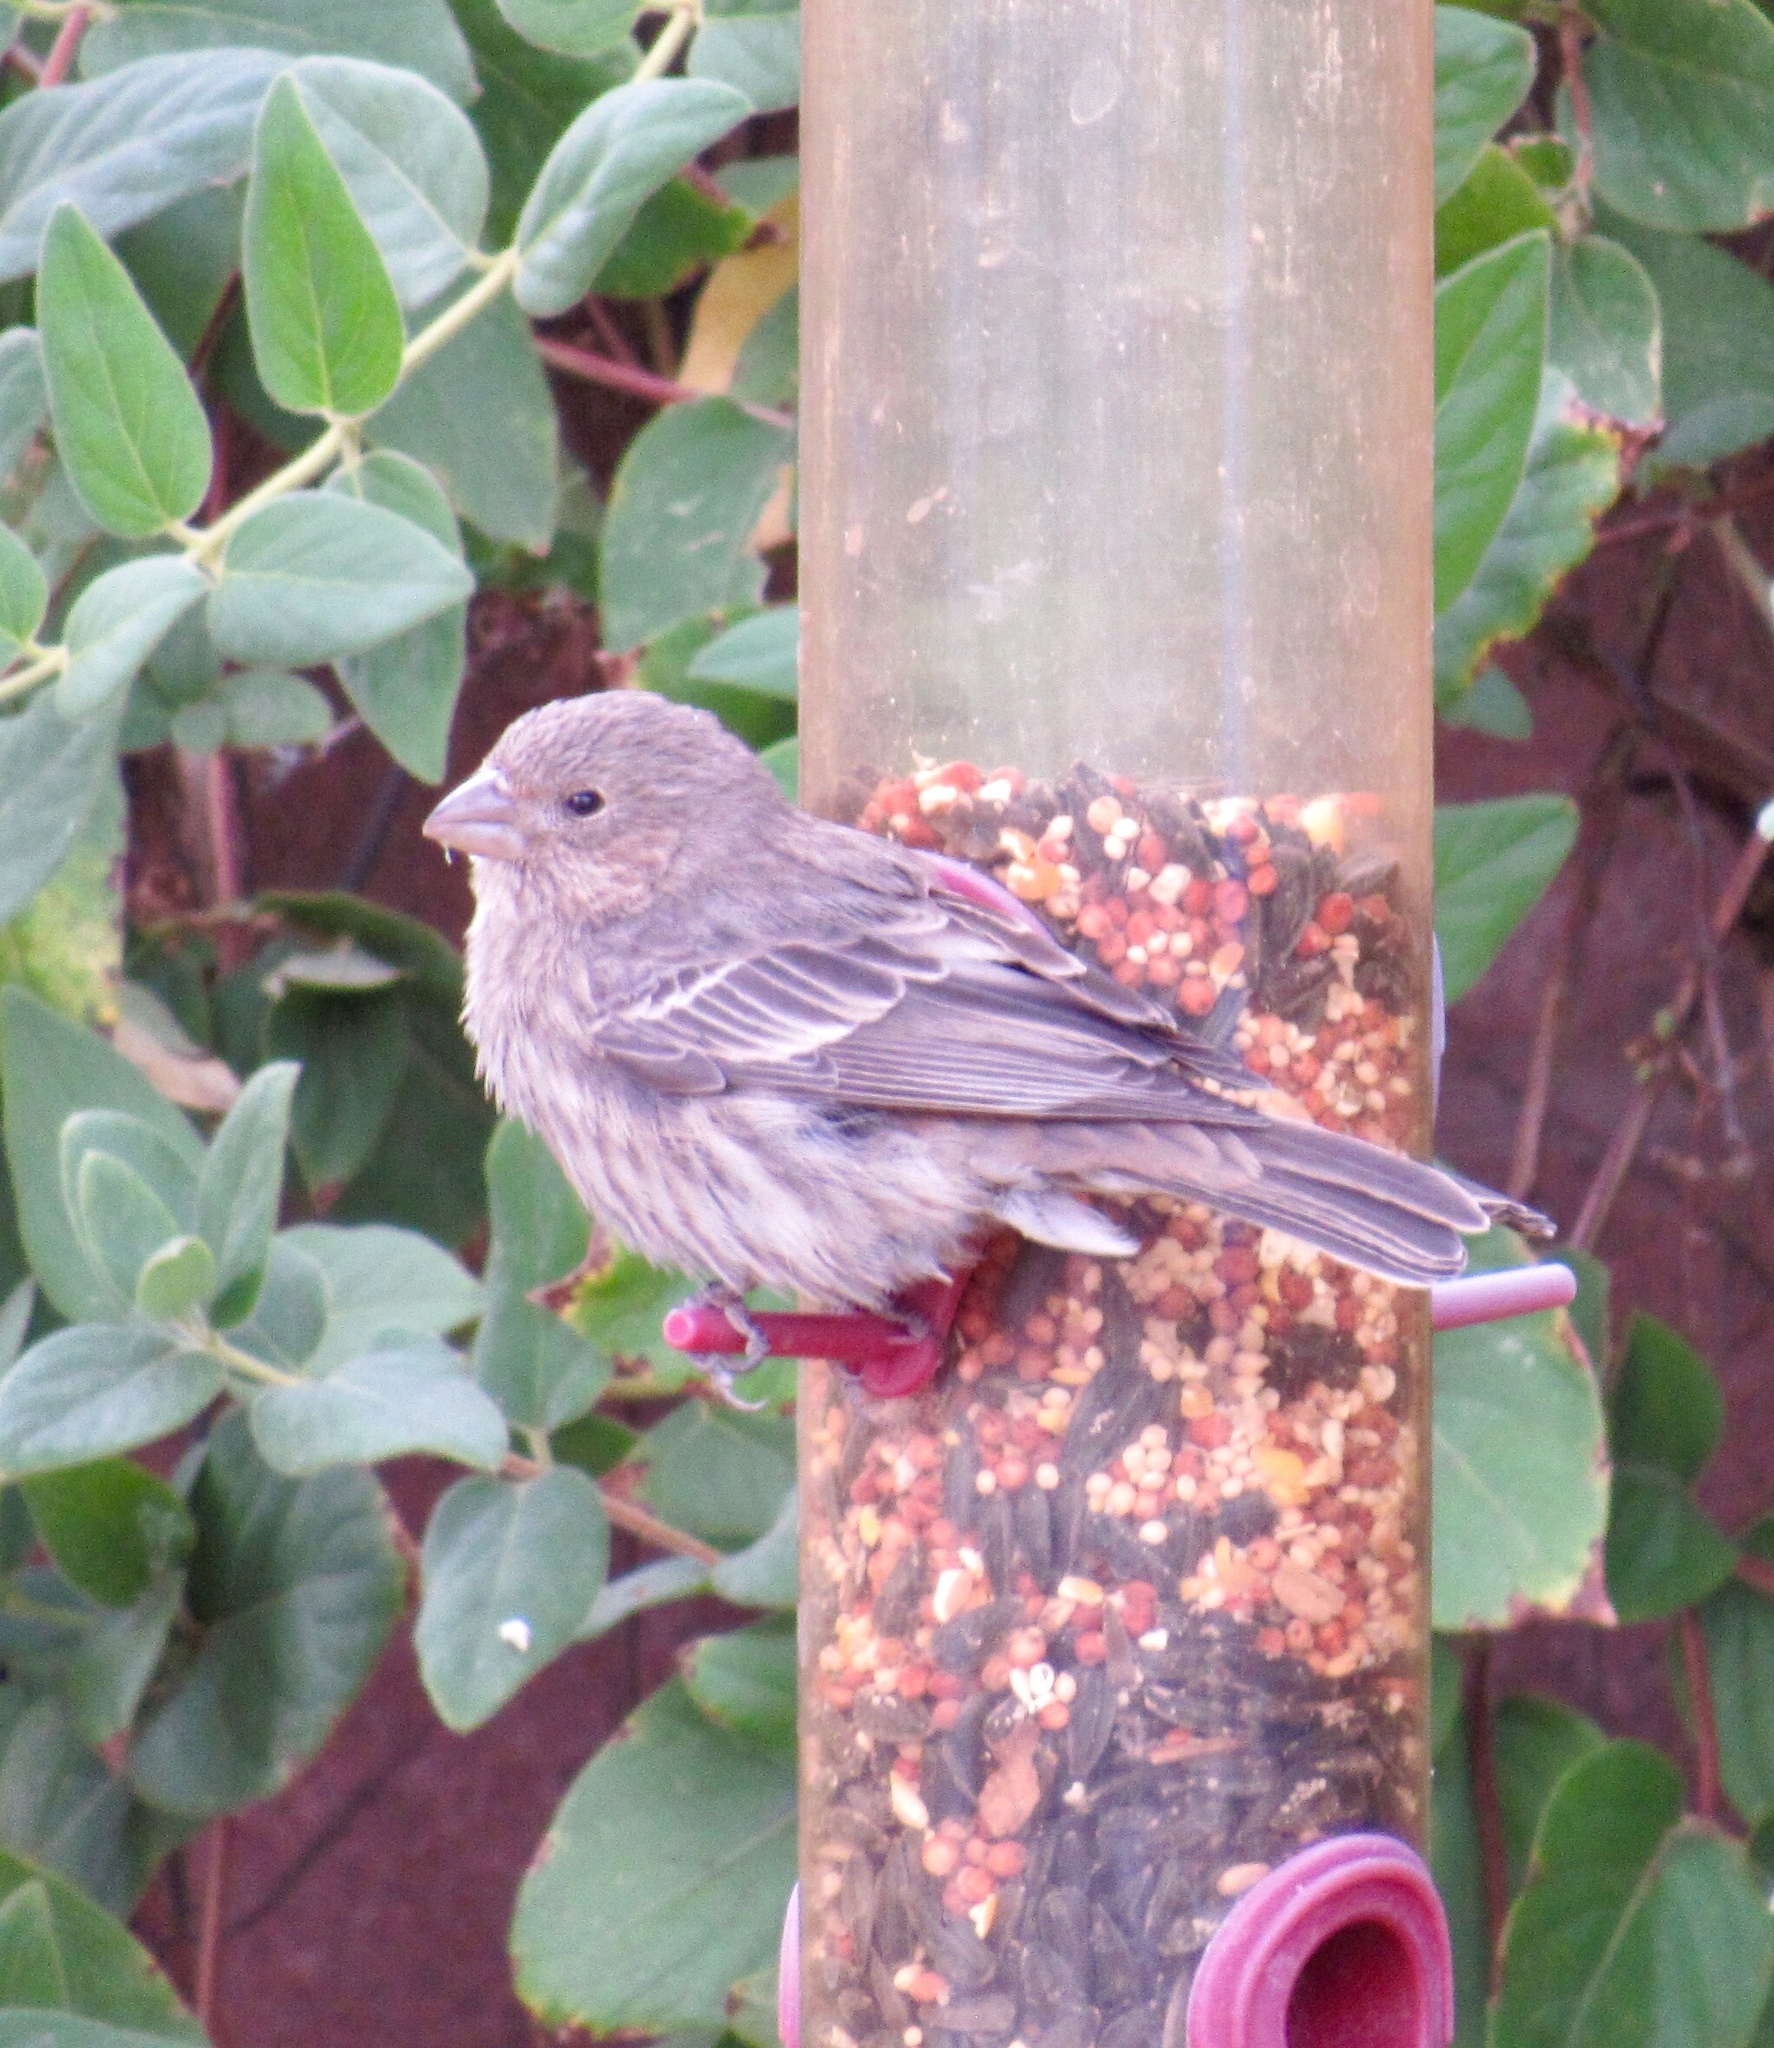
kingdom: Animalia
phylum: Chordata
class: Aves
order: Passeriformes
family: Fringillidae
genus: Haemorhous
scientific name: Haemorhous mexicanus
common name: House finch
